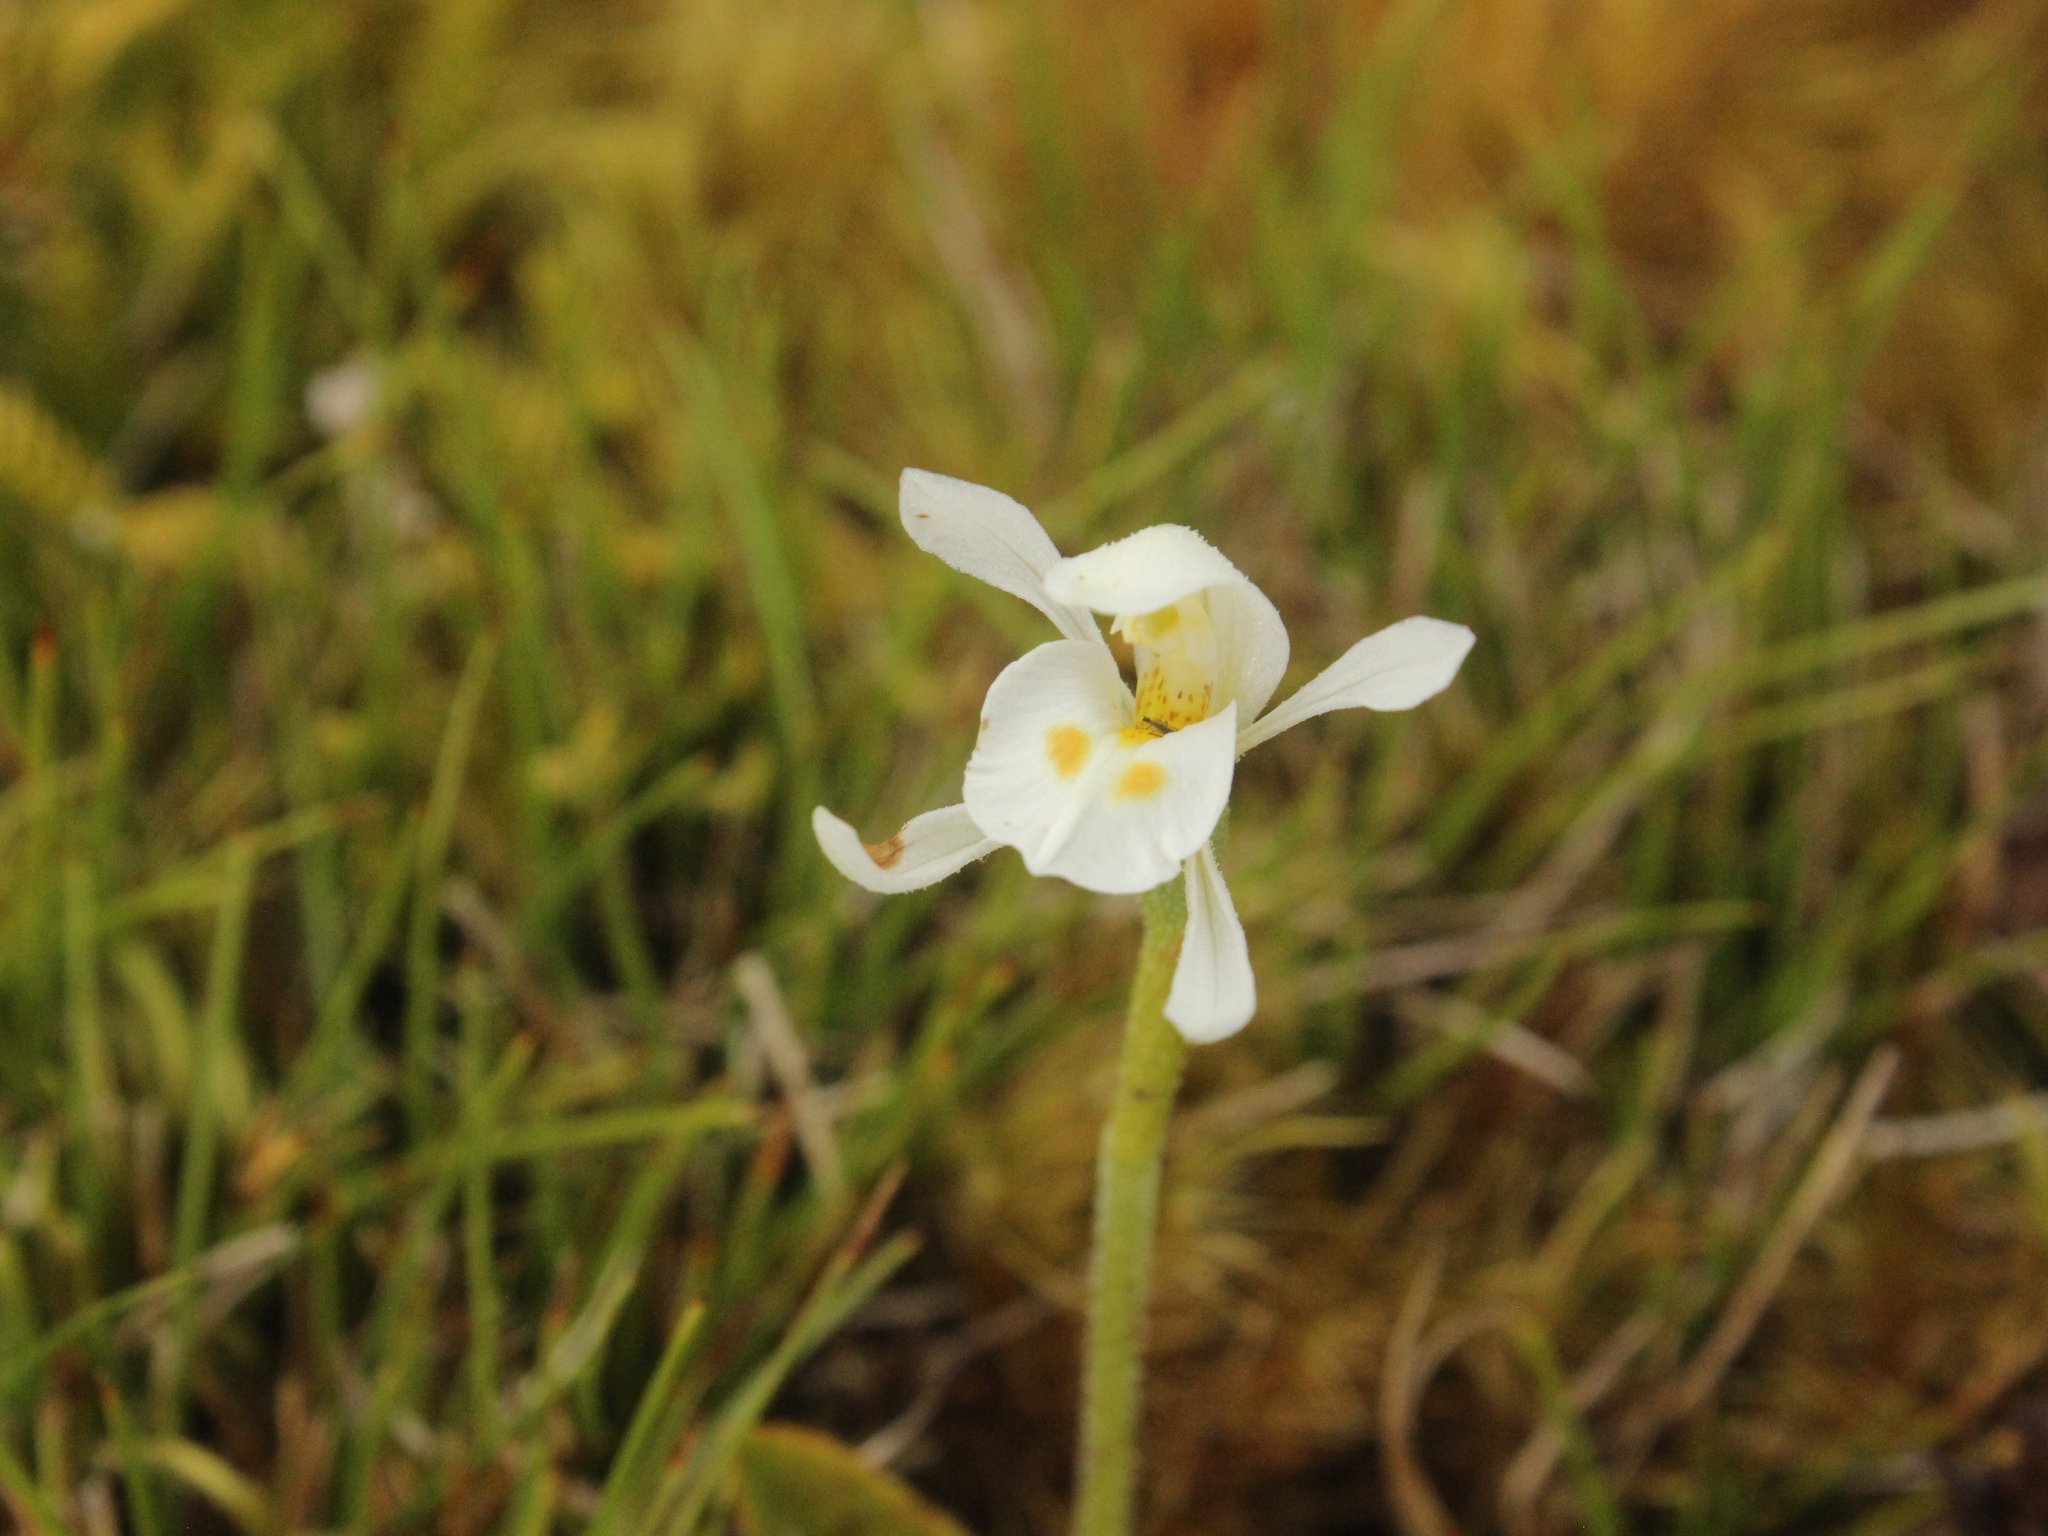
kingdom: Plantae
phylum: Tracheophyta
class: Liliopsida
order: Asparagales
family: Orchidaceae
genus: Aporostylis
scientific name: Aporostylis bifolia
